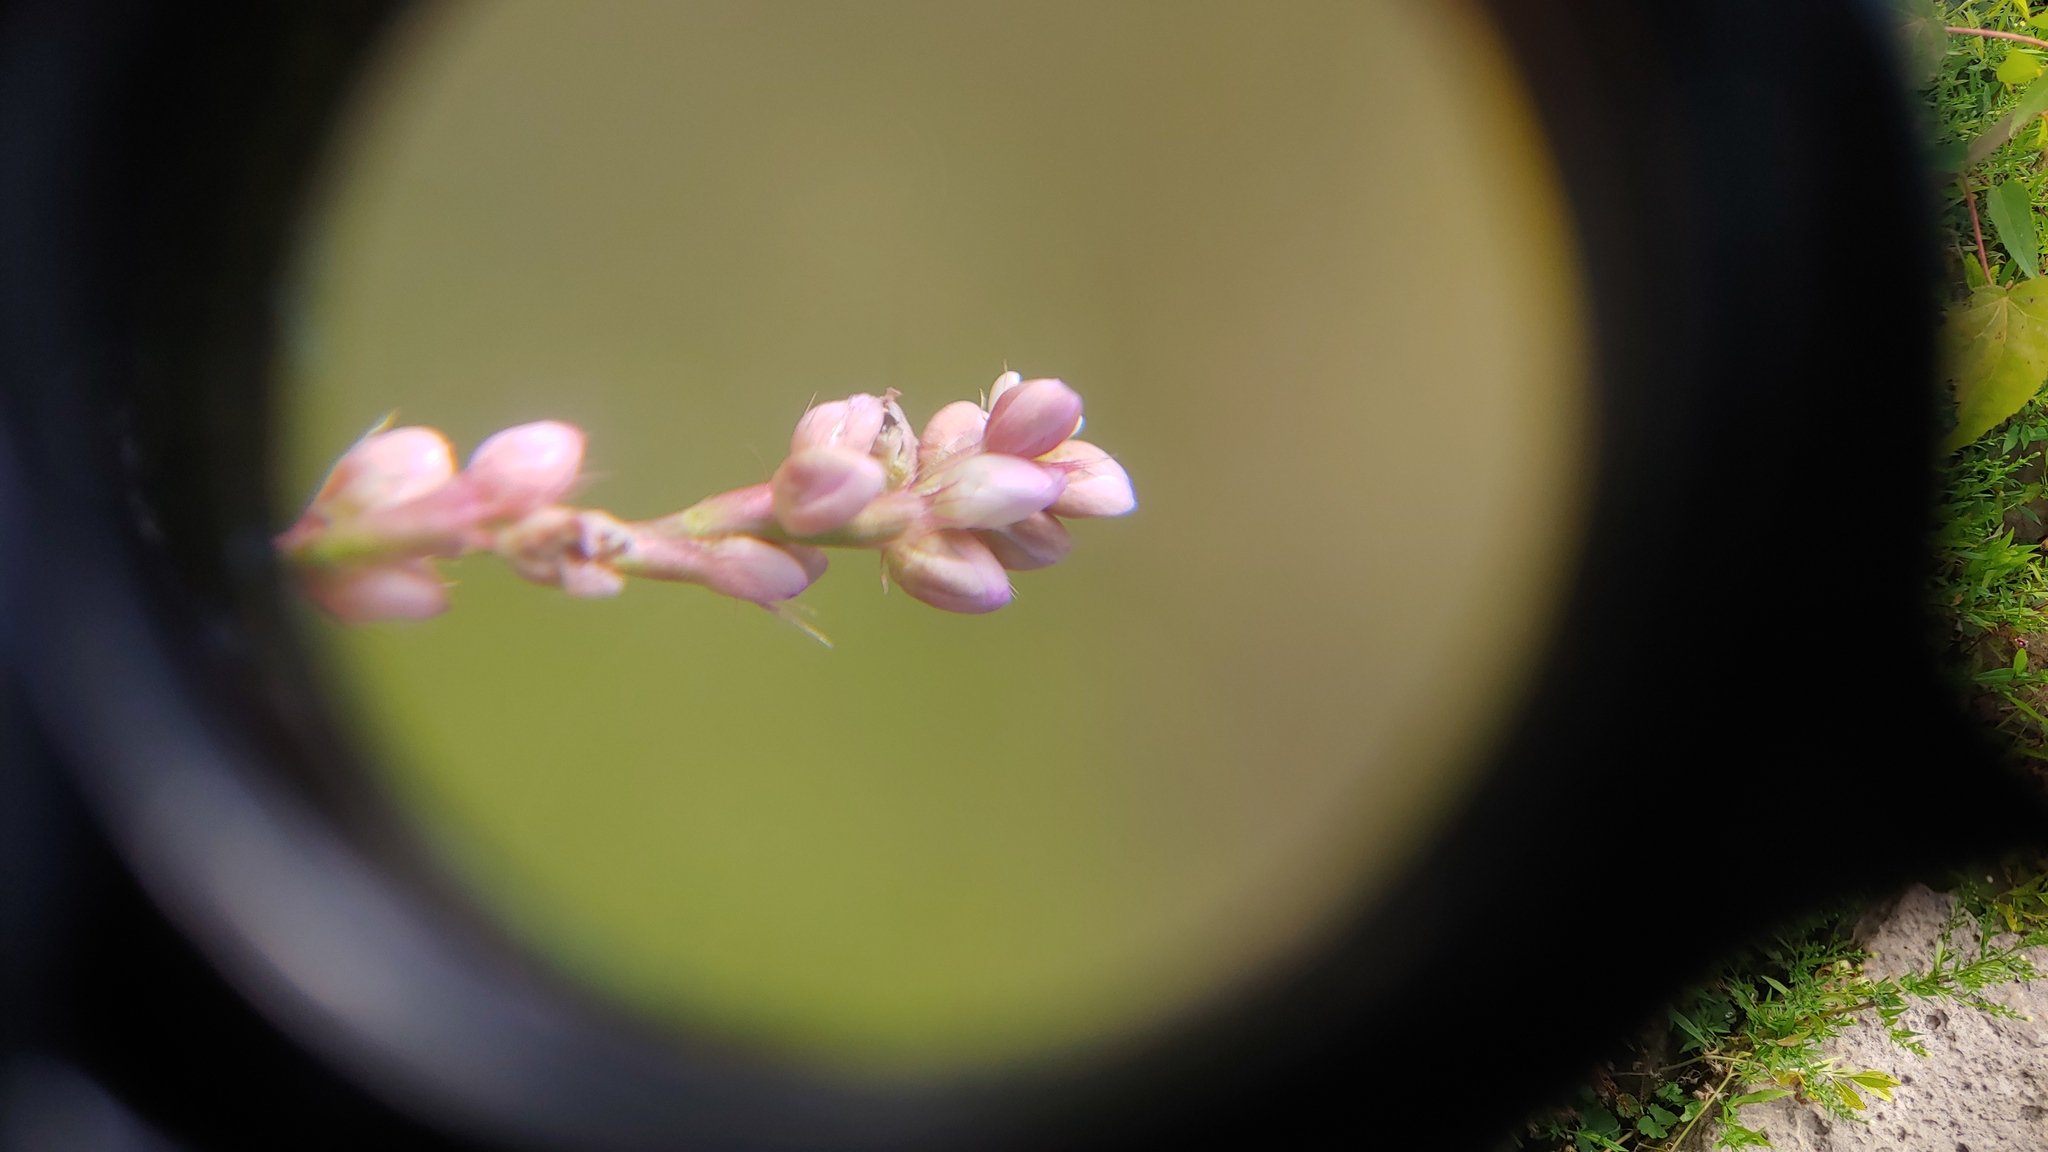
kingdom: Plantae
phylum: Tracheophyta
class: Magnoliopsida
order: Caryophyllales
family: Polygonaceae
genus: Persicaria
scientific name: Persicaria longiseta
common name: Bristly lady's-thumb
